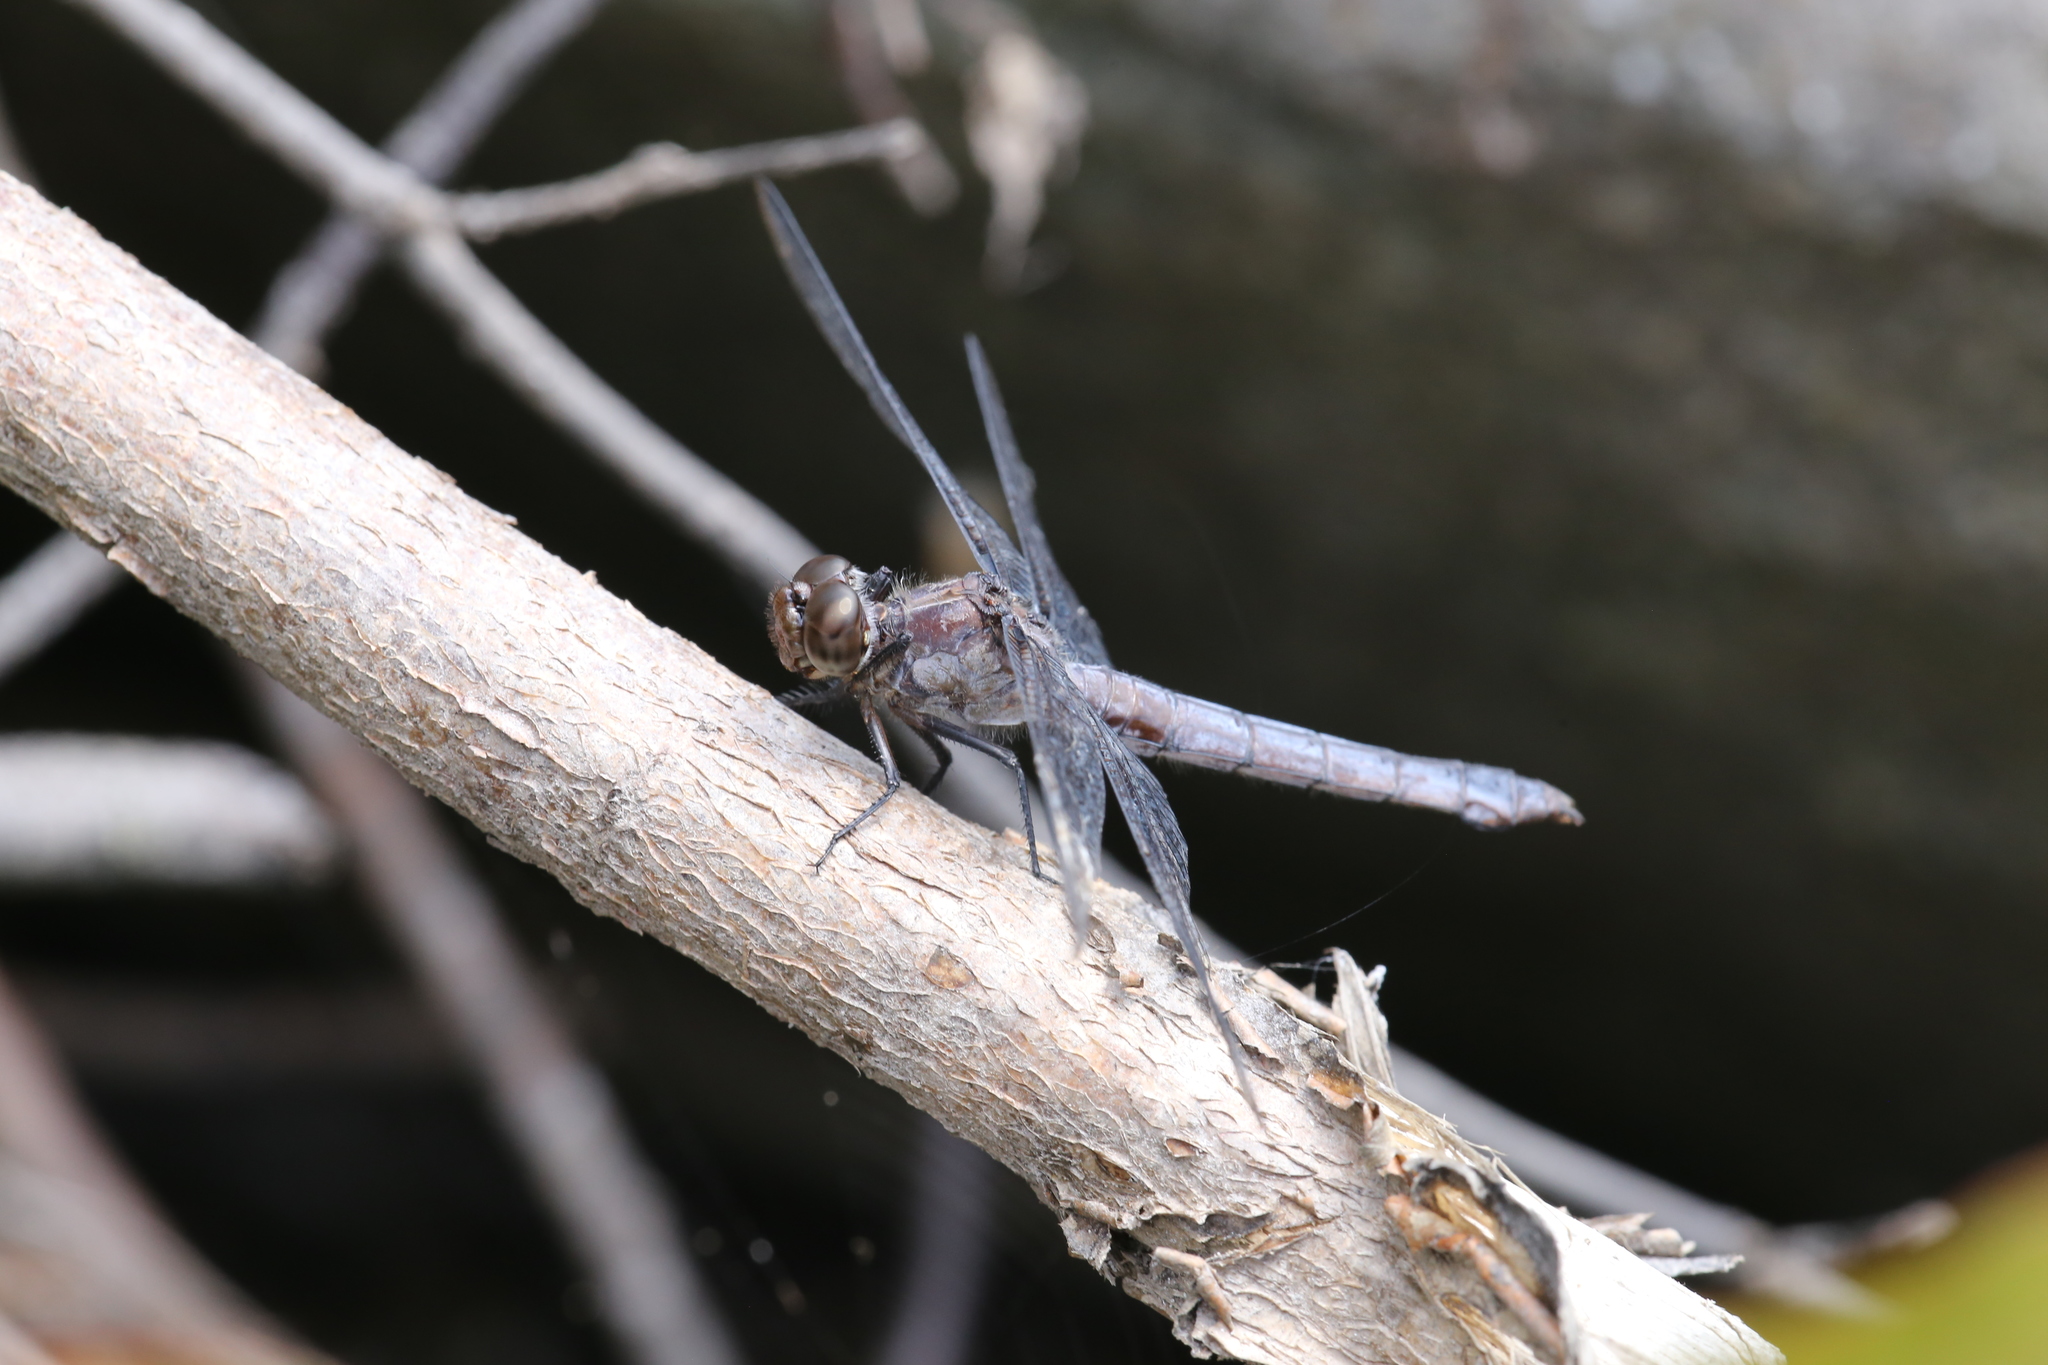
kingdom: Animalia
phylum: Arthropoda
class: Insecta
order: Odonata
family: Libellulidae
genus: Libellula
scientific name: Libellula incesta
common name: Slaty skimmer
